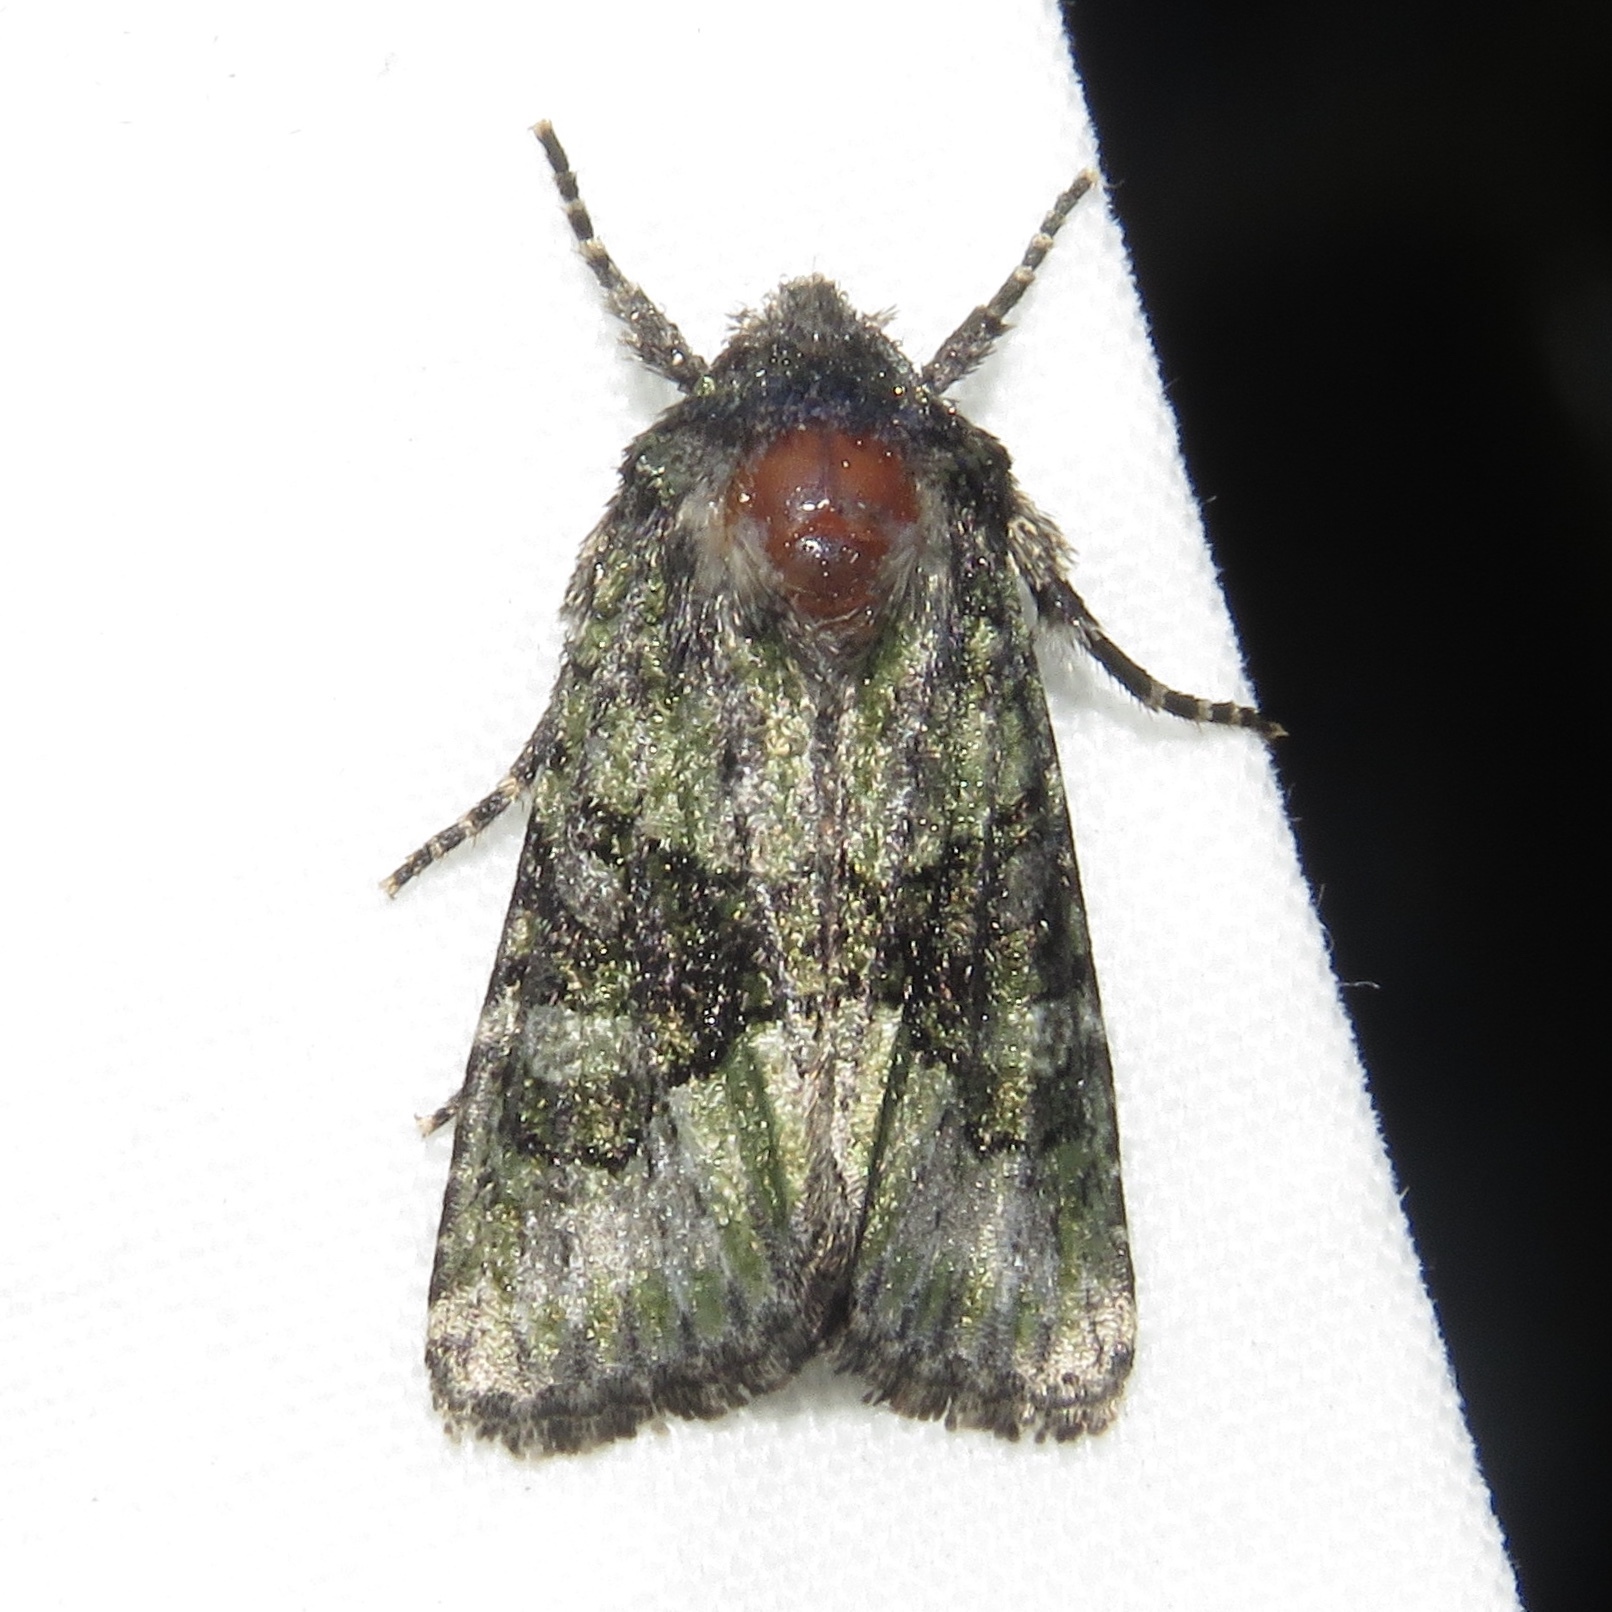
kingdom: Animalia
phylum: Arthropoda
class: Insecta
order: Lepidoptera
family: Noctuidae
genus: Lacinipolia
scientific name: Lacinipolia olivacea
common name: Olive arches moth
